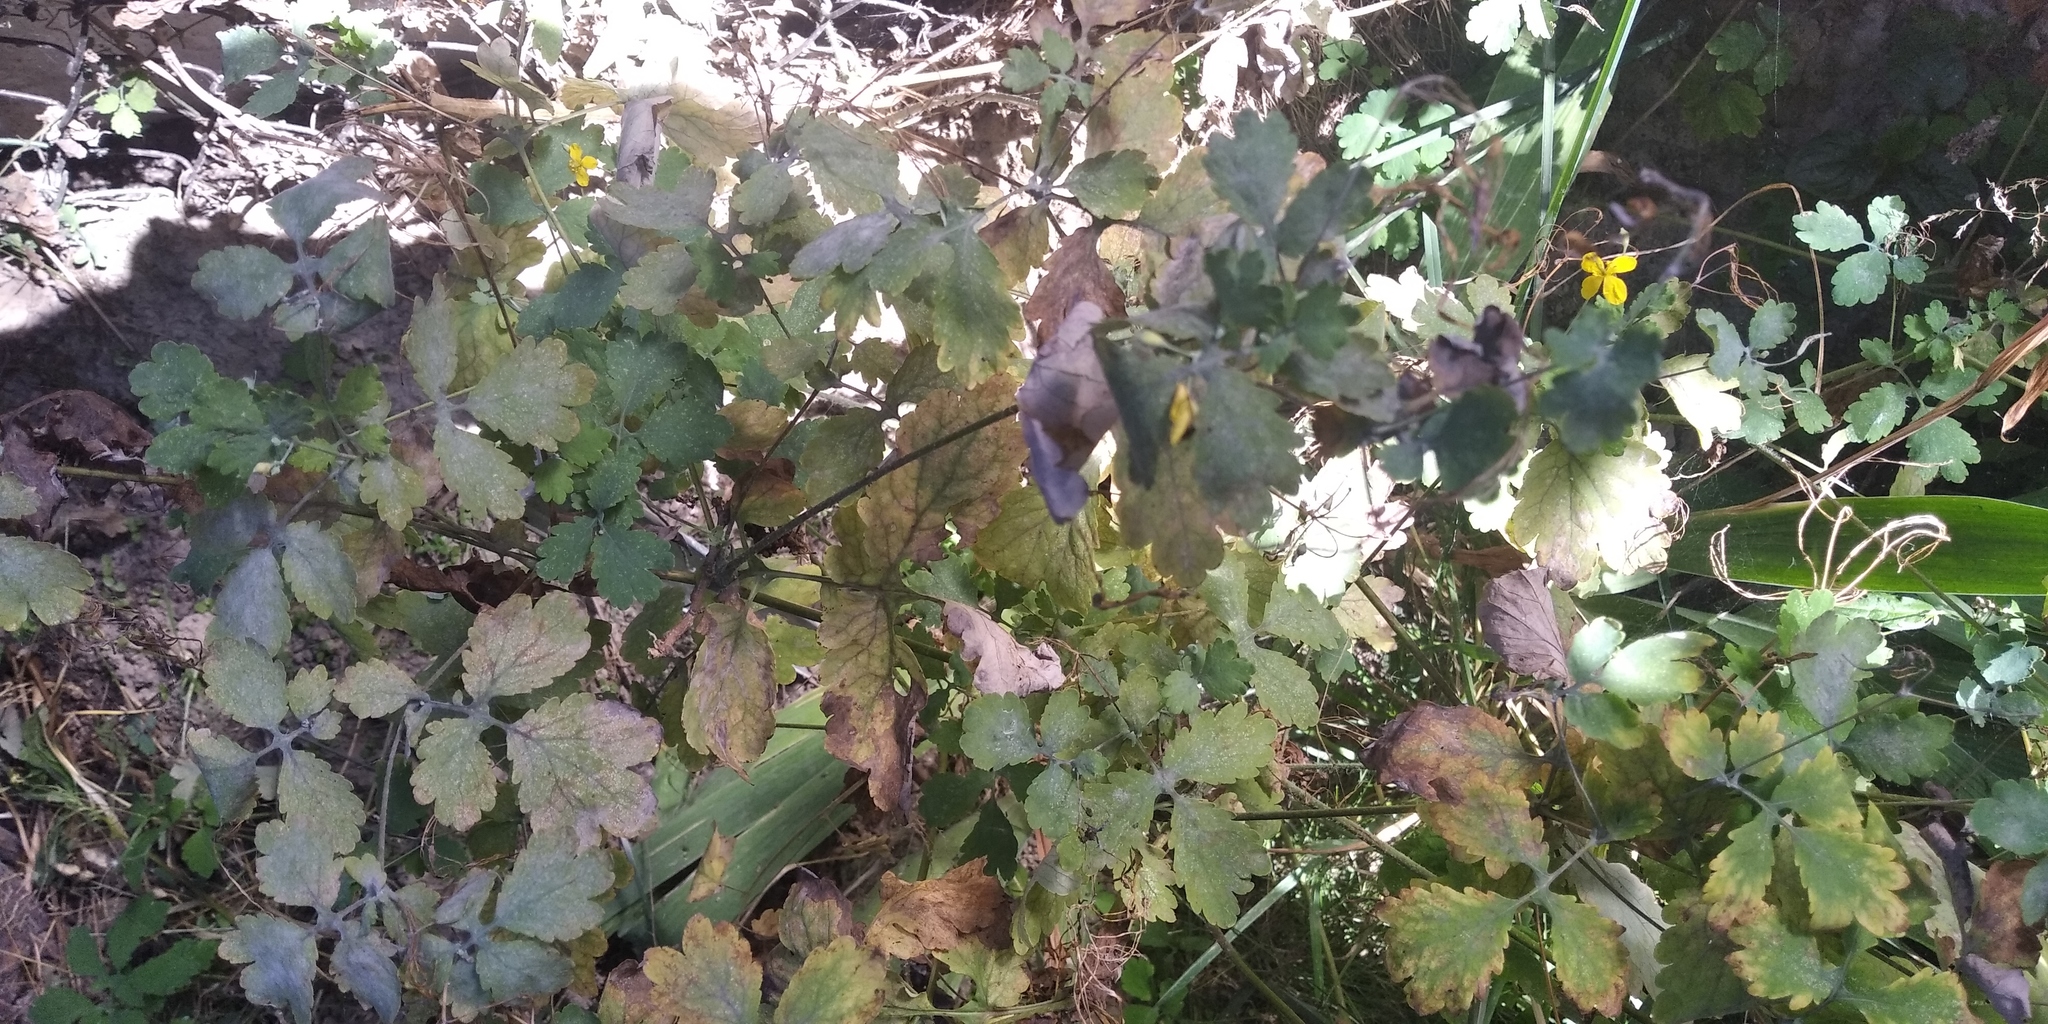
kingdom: Plantae
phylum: Tracheophyta
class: Magnoliopsida
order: Ranunculales
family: Papaveraceae
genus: Chelidonium
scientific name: Chelidonium majus
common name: Greater celandine
